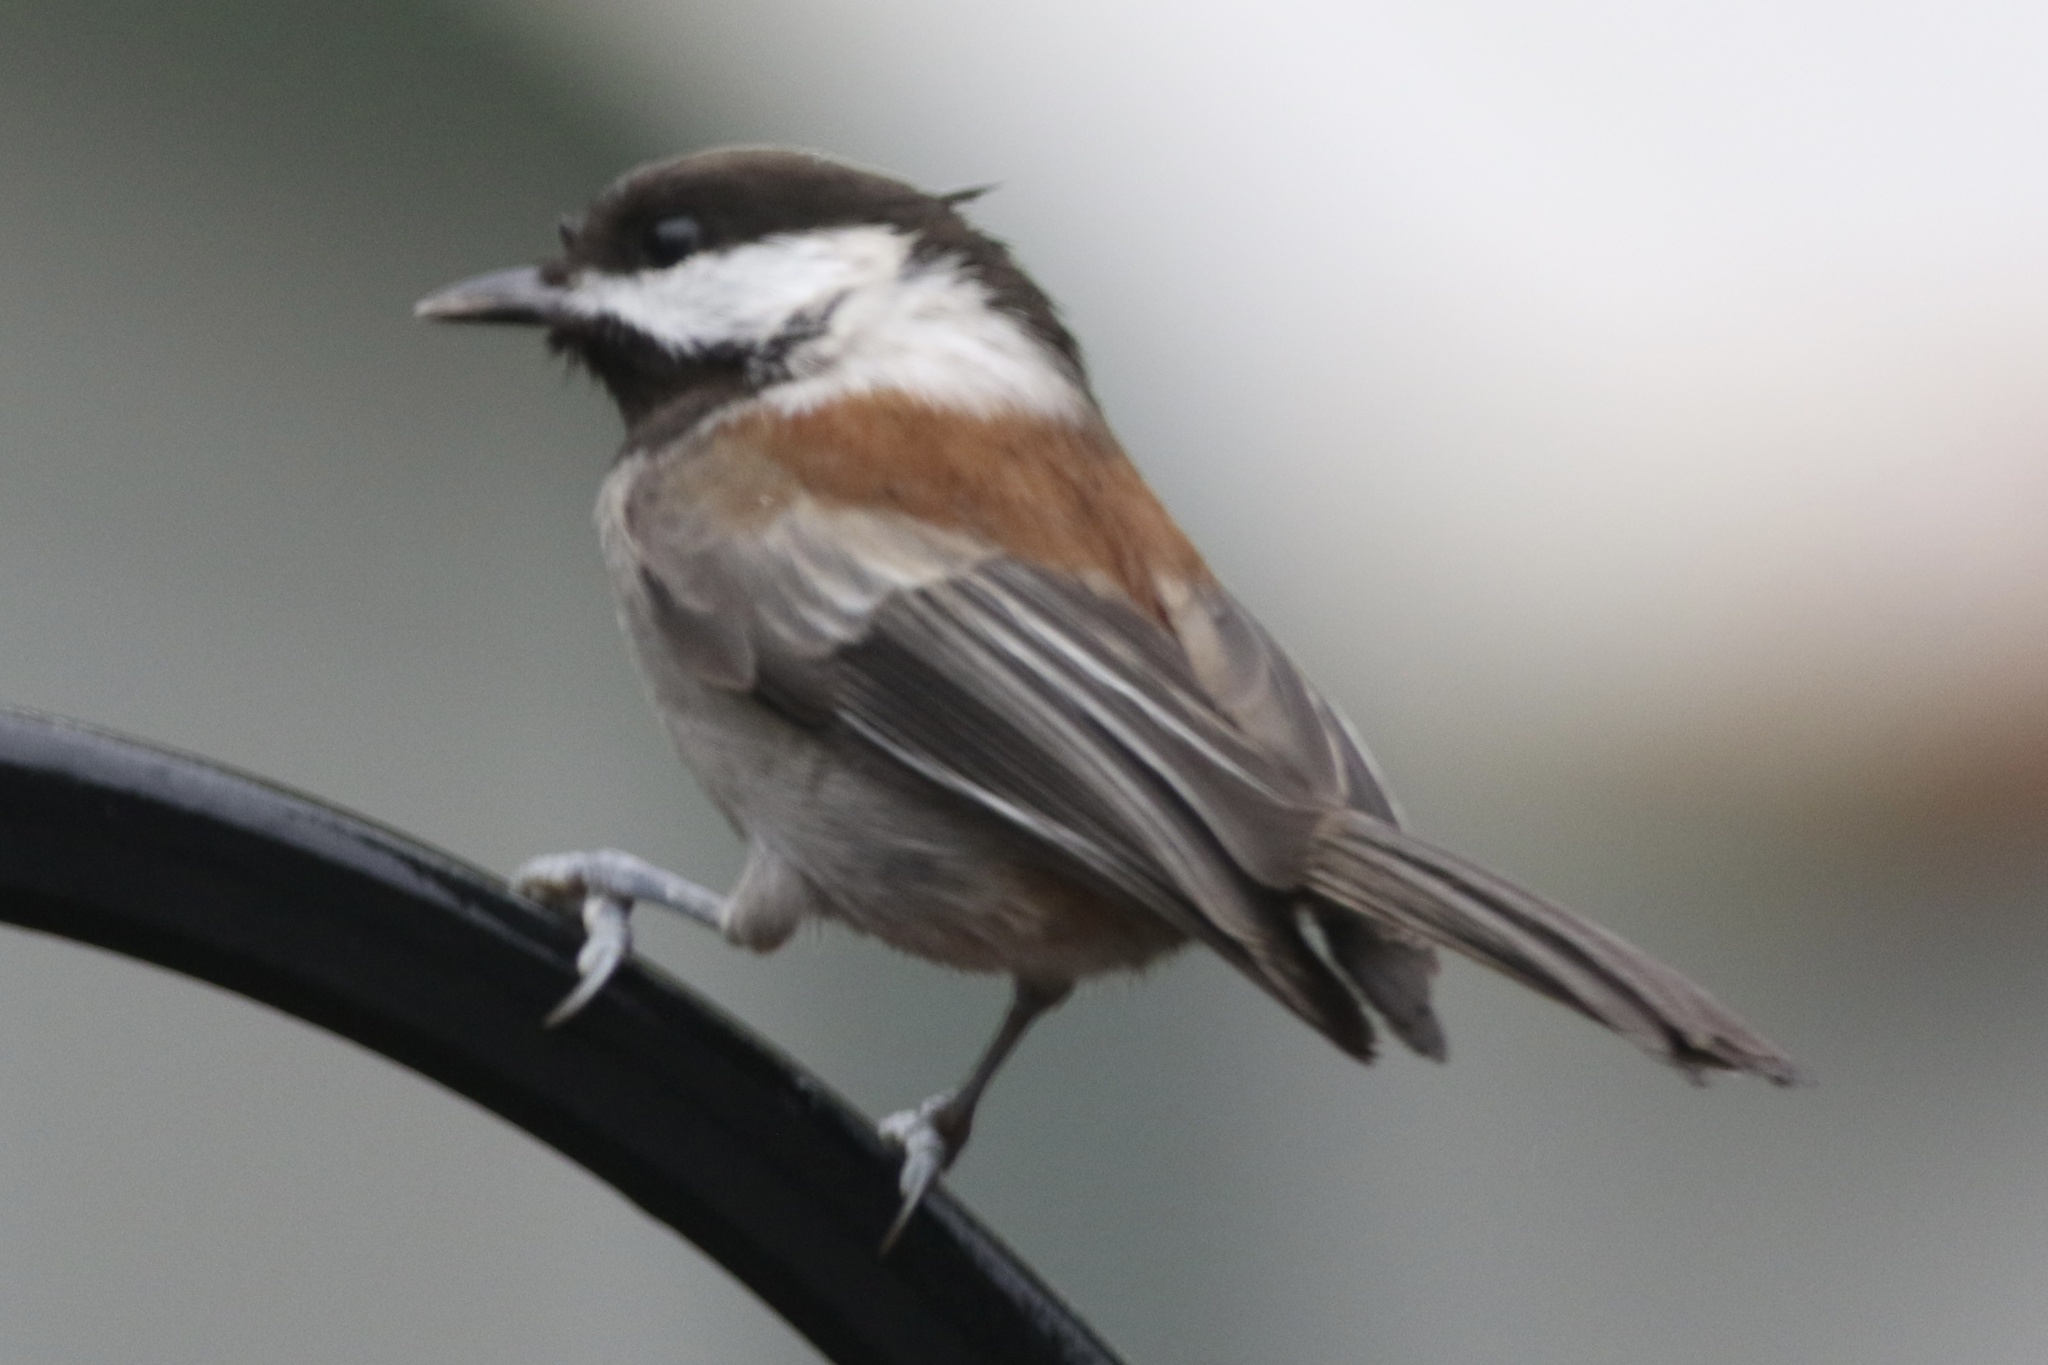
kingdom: Animalia
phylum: Chordata
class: Aves
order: Passeriformes
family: Paridae
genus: Poecile
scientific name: Poecile rufescens
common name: Chestnut-backed chickadee
